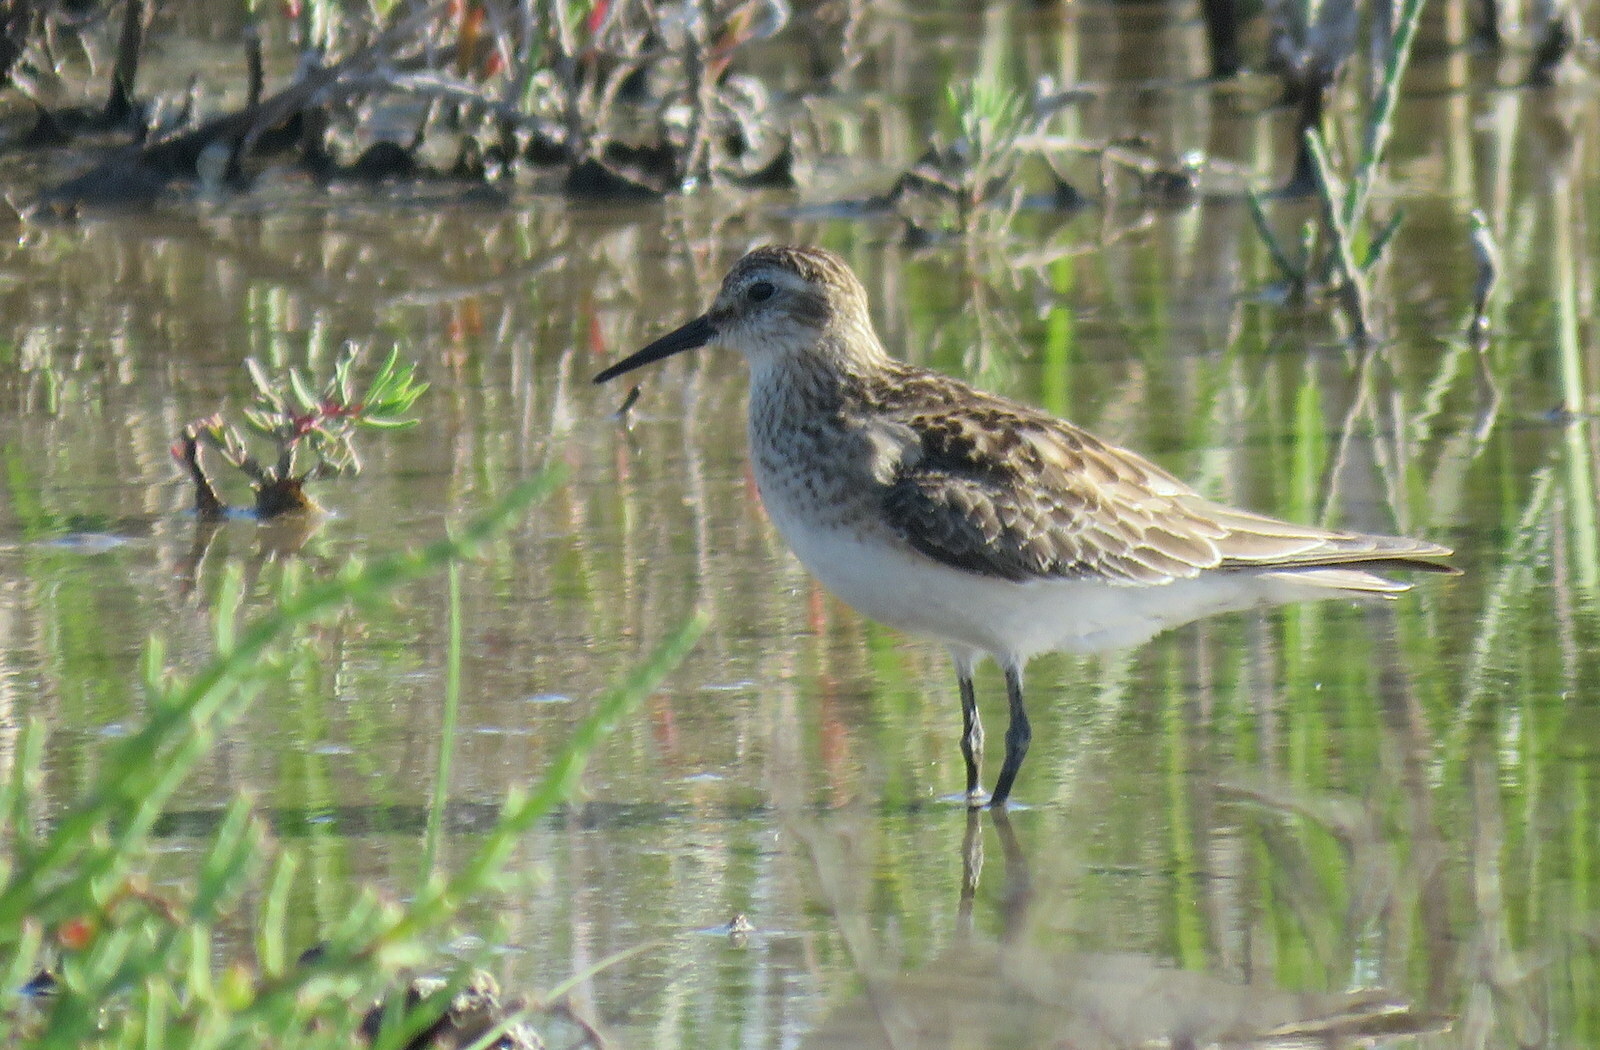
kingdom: Animalia
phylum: Chordata
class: Aves
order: Charadriiformes
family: Scolopacidae
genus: Calidris
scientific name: Calidris bairdii
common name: Baird's sandpiper
